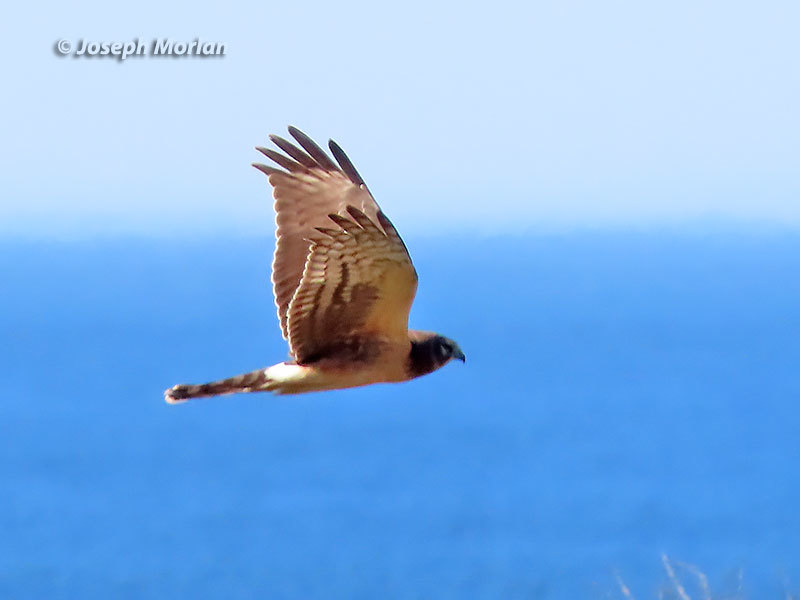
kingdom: Animalia
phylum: Chordata
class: Aves
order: Accipitriformes
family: Accipitridae
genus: Circus
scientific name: Circus cyaneus
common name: Hen harrier
